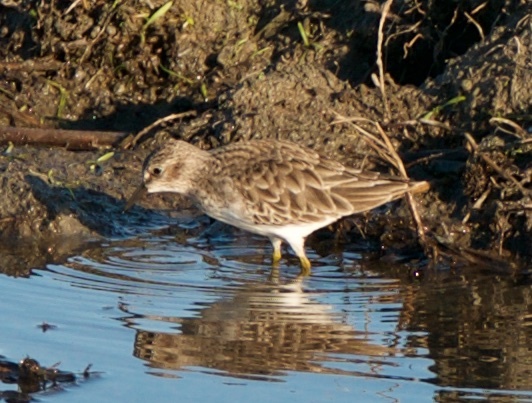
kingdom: Animalia
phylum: Chordata
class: Aves
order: Charadriiformes
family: Scolopacidae
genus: Calidris
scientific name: Calidris minutilla
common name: Least sandpiper
